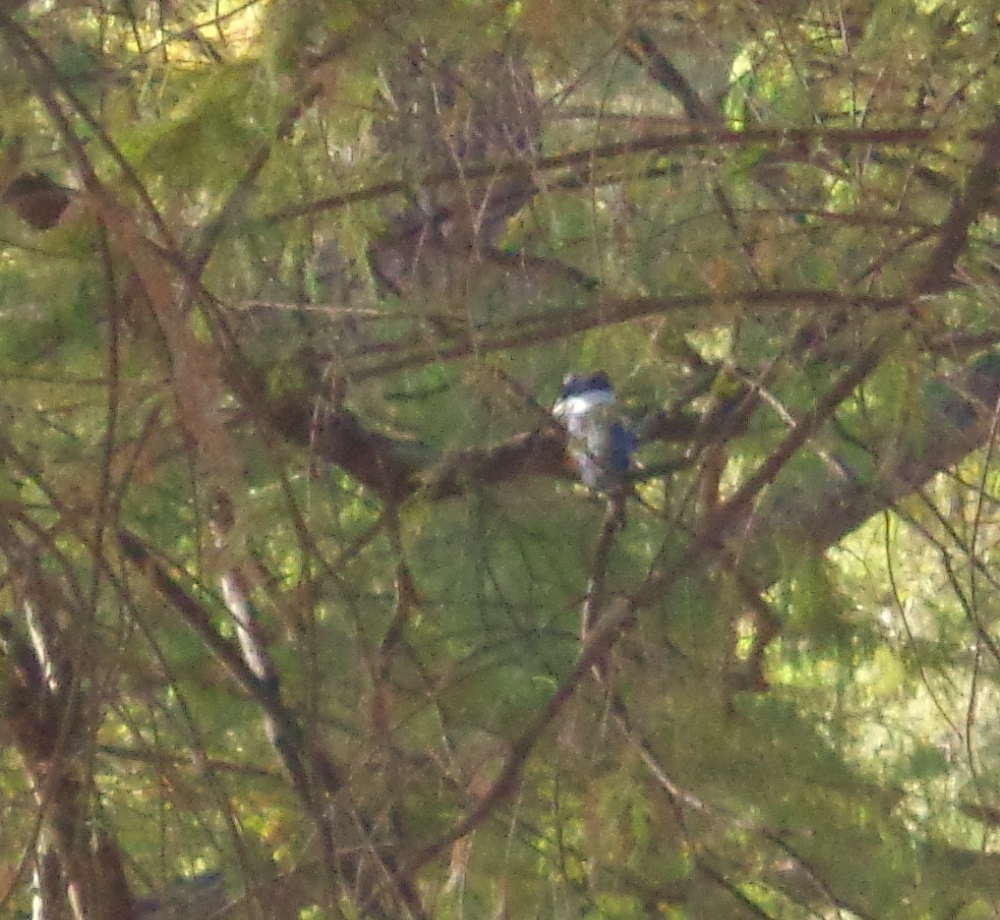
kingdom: Animalia
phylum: Chordata
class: Aves
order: Coraciiformes
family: Alcedinidae
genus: Megaceryle
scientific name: Megaceryle torquata
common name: Ringed kingfisher
